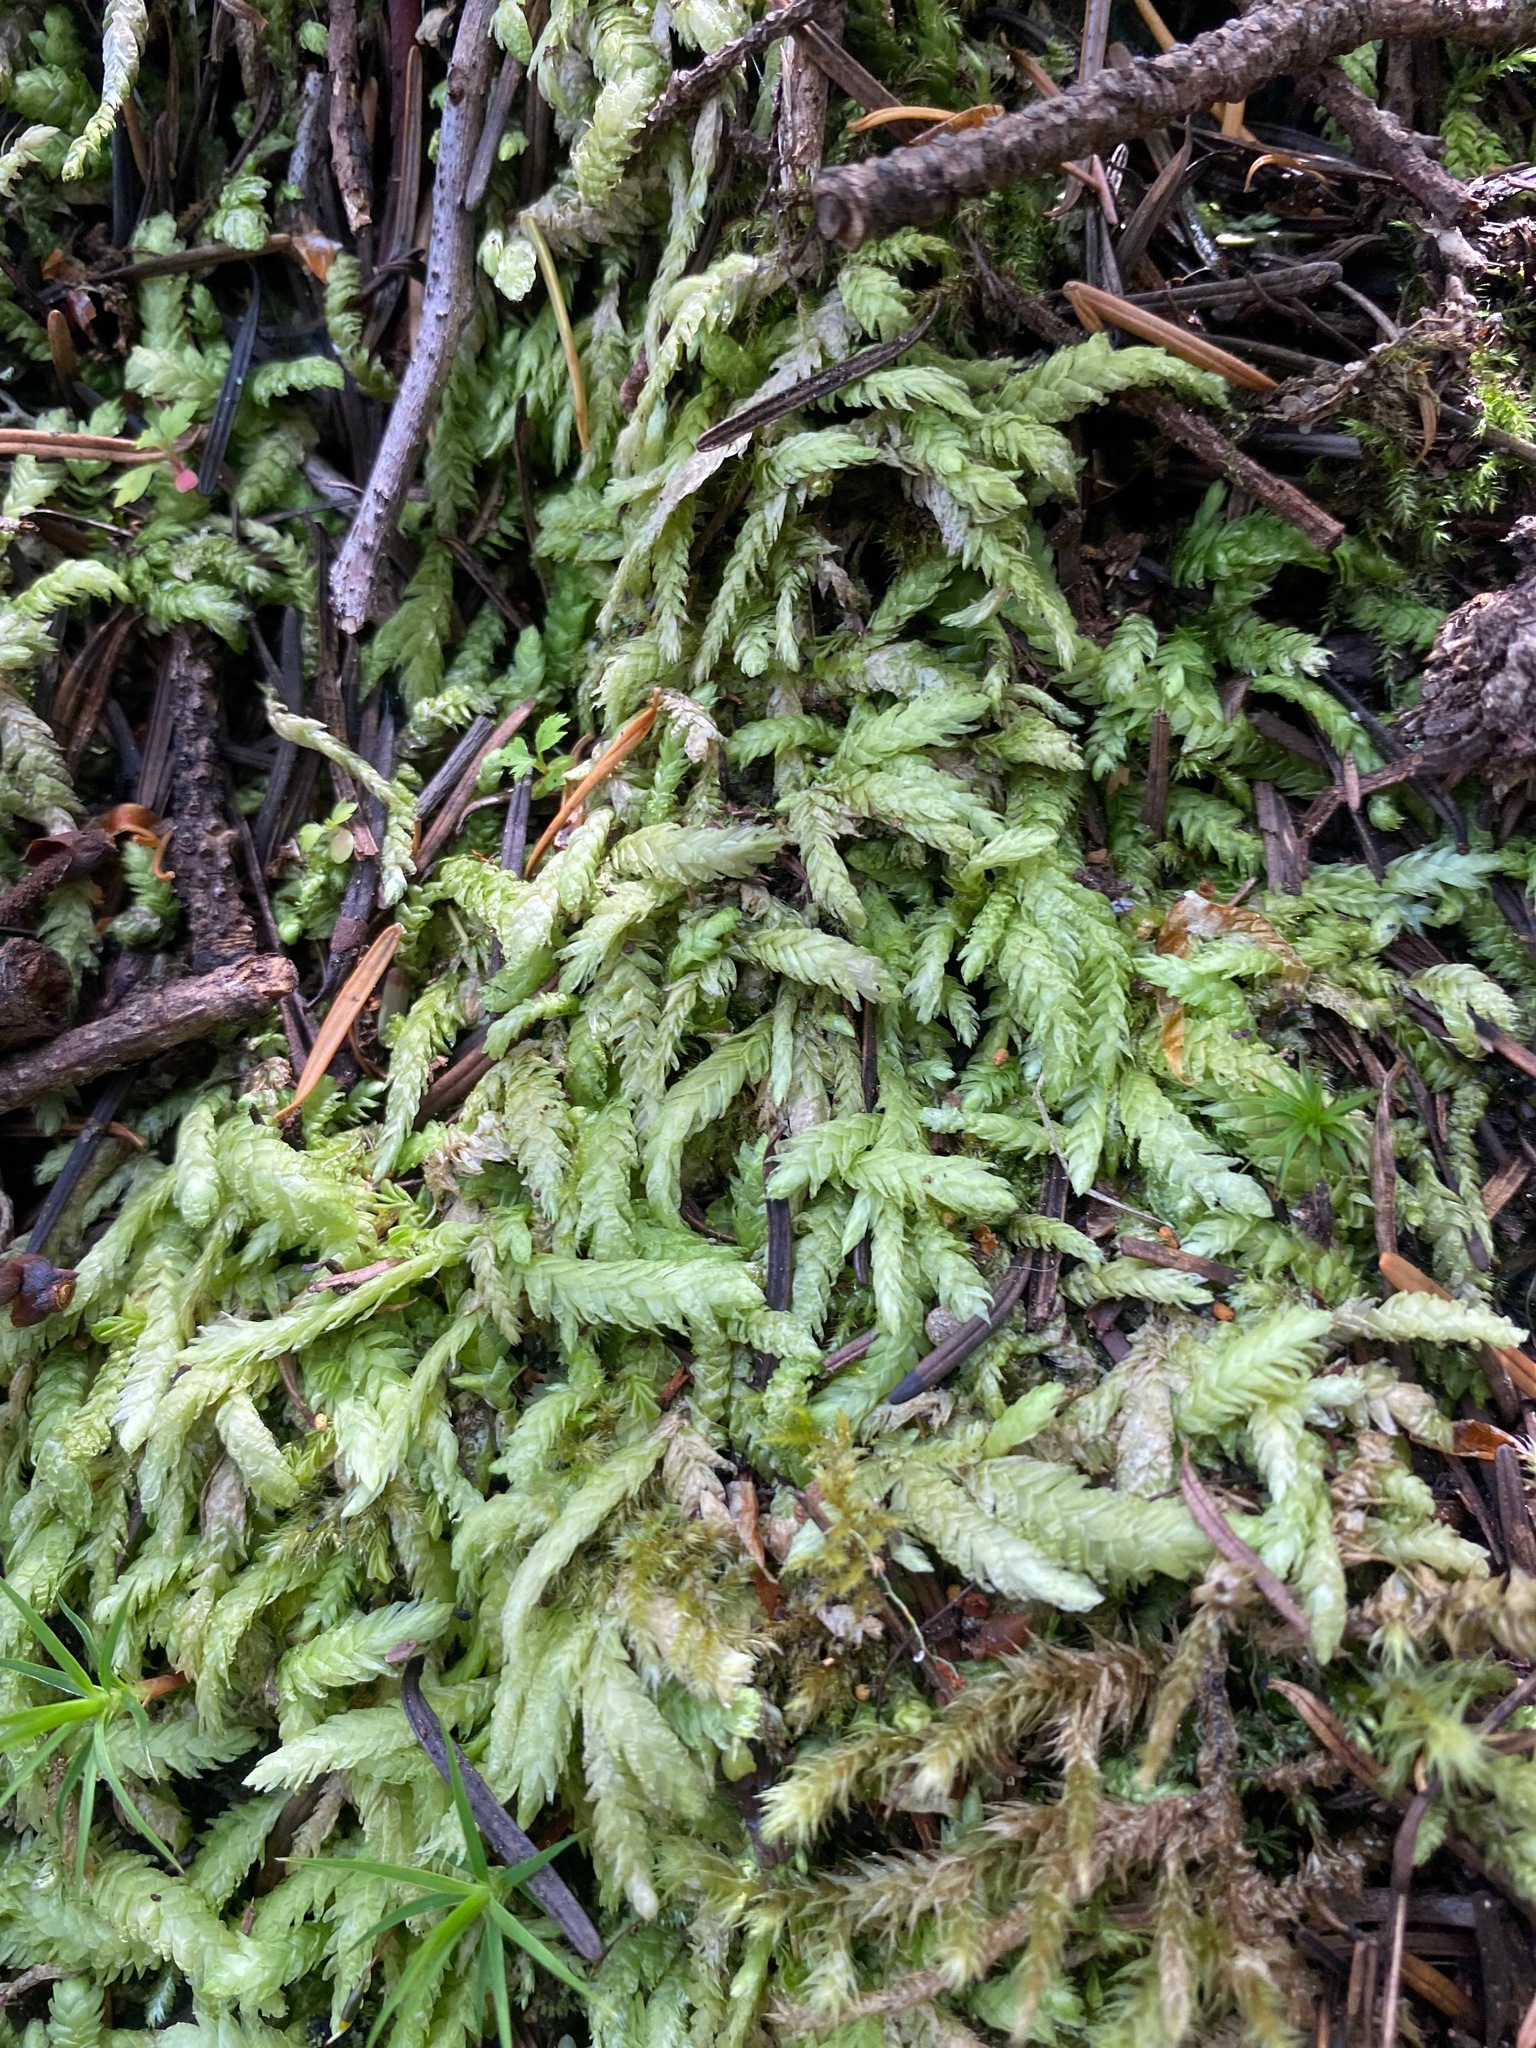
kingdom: Plantae
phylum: Bryophyta
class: Bryopsida
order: Hypnales
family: Plagiotheciaceae
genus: Plagiothecium
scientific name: Plagiothecium undulatum
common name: Waved silk-moss
